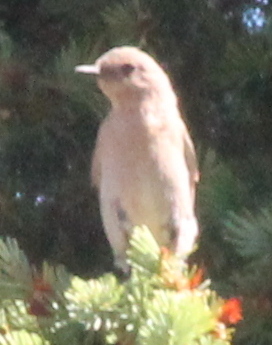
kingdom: Animalia
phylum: Chordata
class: Aves
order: Passeriformes
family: Turdidae
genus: Myadestes
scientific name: Myadestes townsendi
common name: Townsend's solitaire
